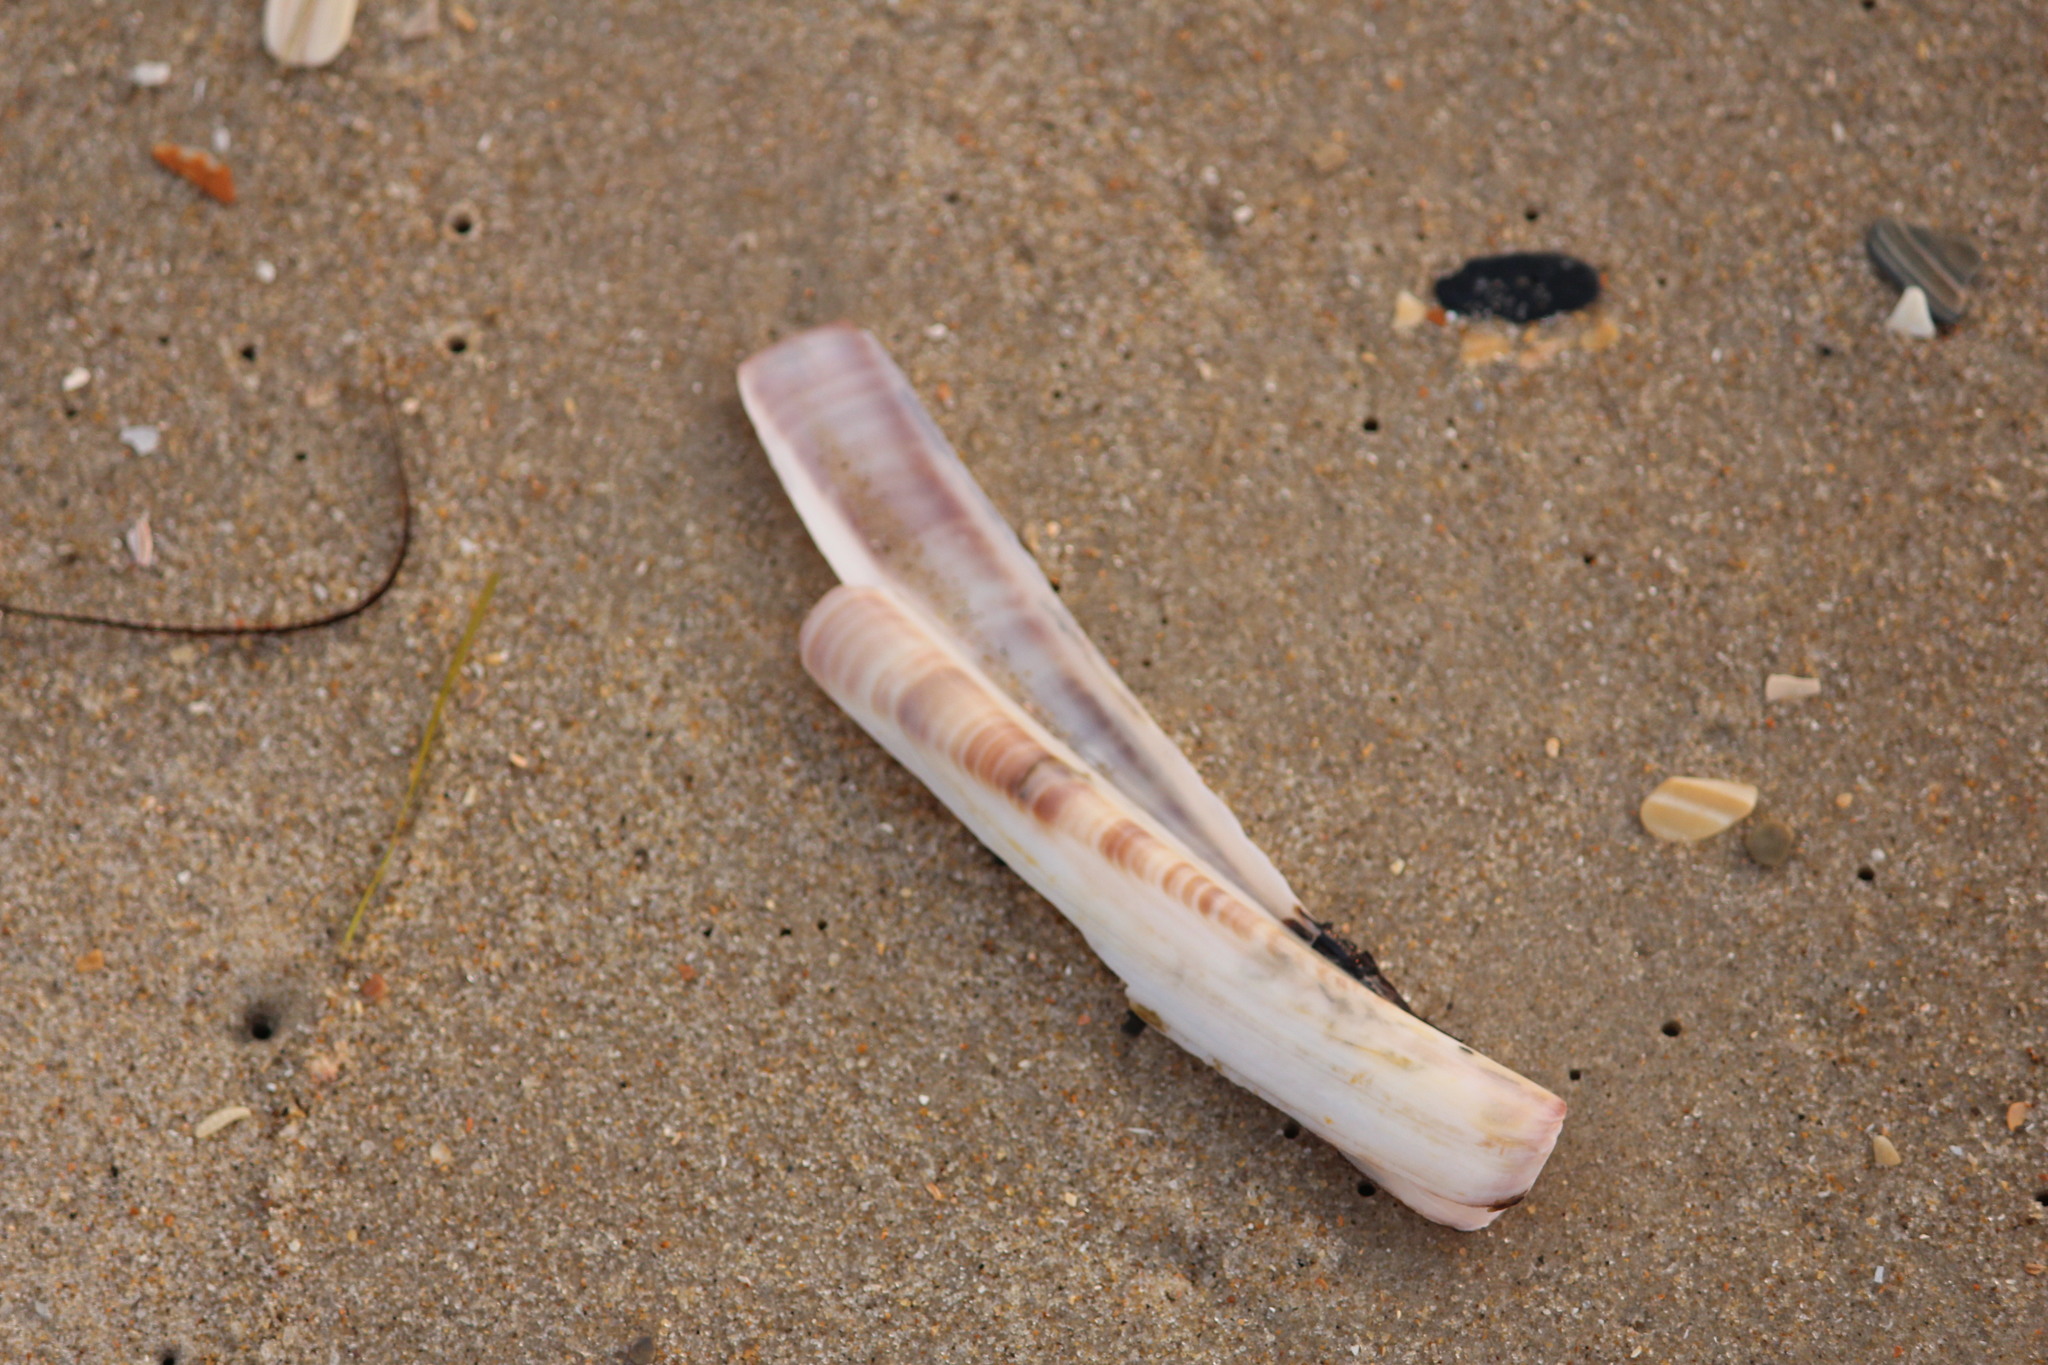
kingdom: Animalia
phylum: Mollusca
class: Bivalvia
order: Adapedonta
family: Pharidae
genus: Ensis
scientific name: Ensis leei
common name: American jack knife clam
